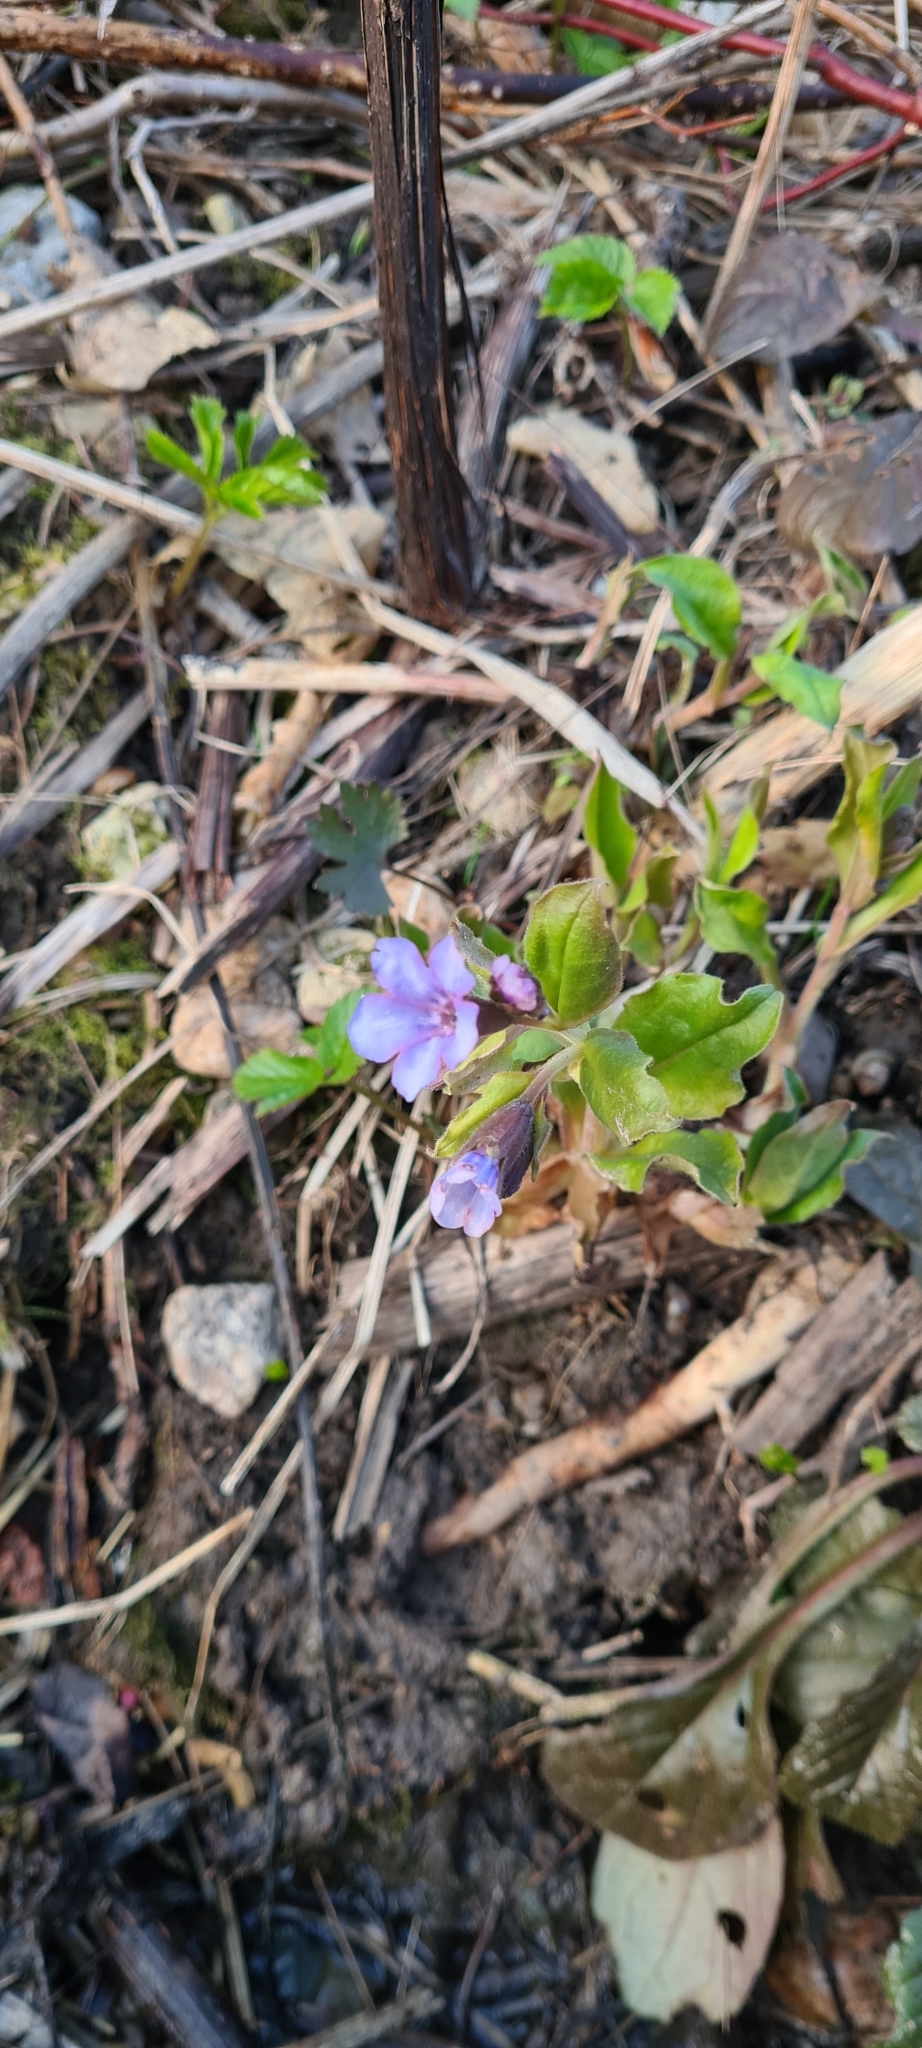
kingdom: Plantae
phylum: Tracheophyta
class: Magnoliopsida
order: Boraginales
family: Boraginaceae
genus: Pulmonaria
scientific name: Pulmonaria obscura
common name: Suffolk lungwort
